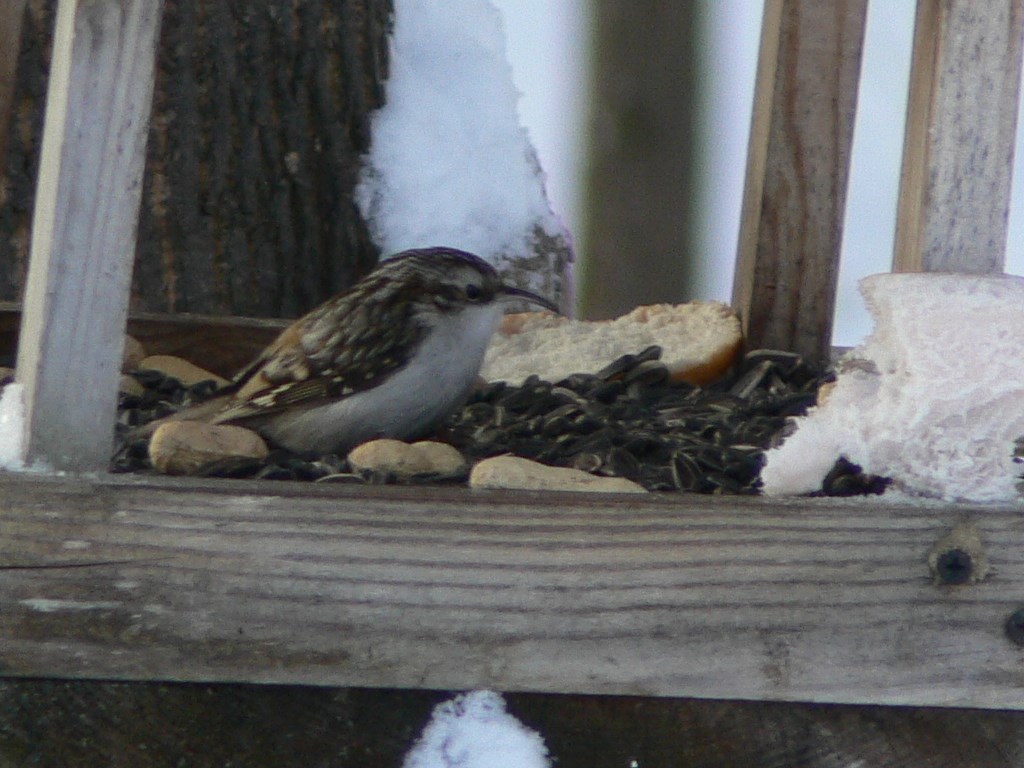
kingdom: Animalia
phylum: Chordata
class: Aves
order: Passeriformes
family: Certhiidae
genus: Certhia
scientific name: Certhia familiaris
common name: Eurasian treecreeper
